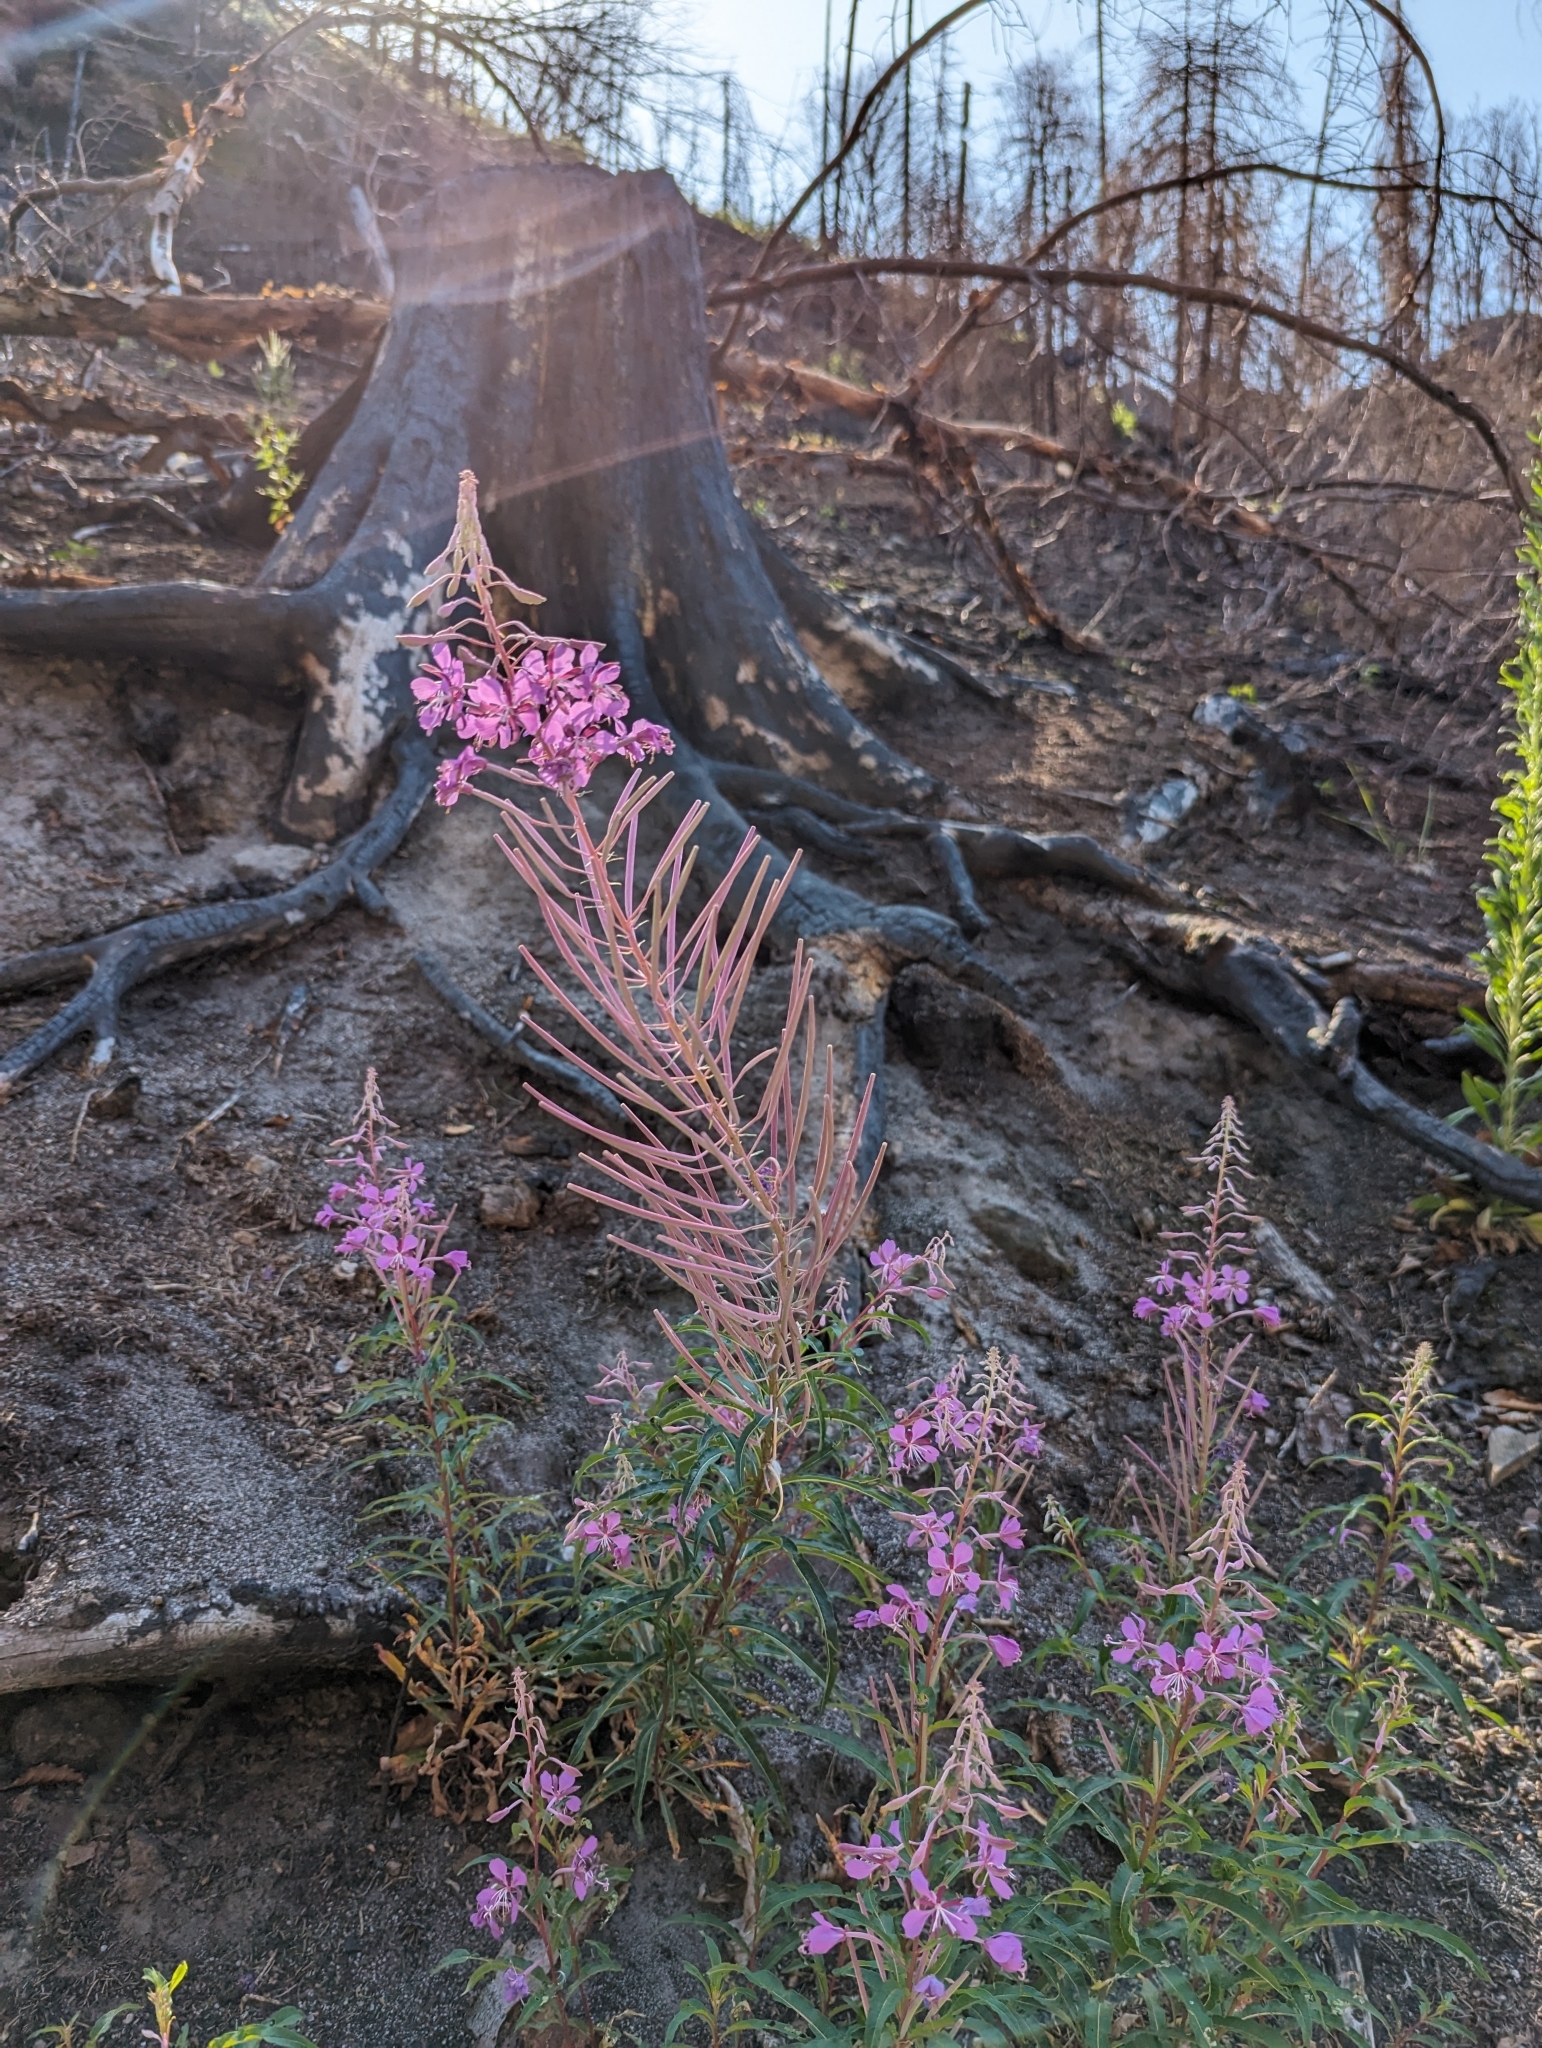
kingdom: Plantae
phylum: Tracheophyta
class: Magnoliopsida
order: Myrtales
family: Onagraceae
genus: Chamaenerion
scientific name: Chamaenerion angustifolium
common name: Fireweed
